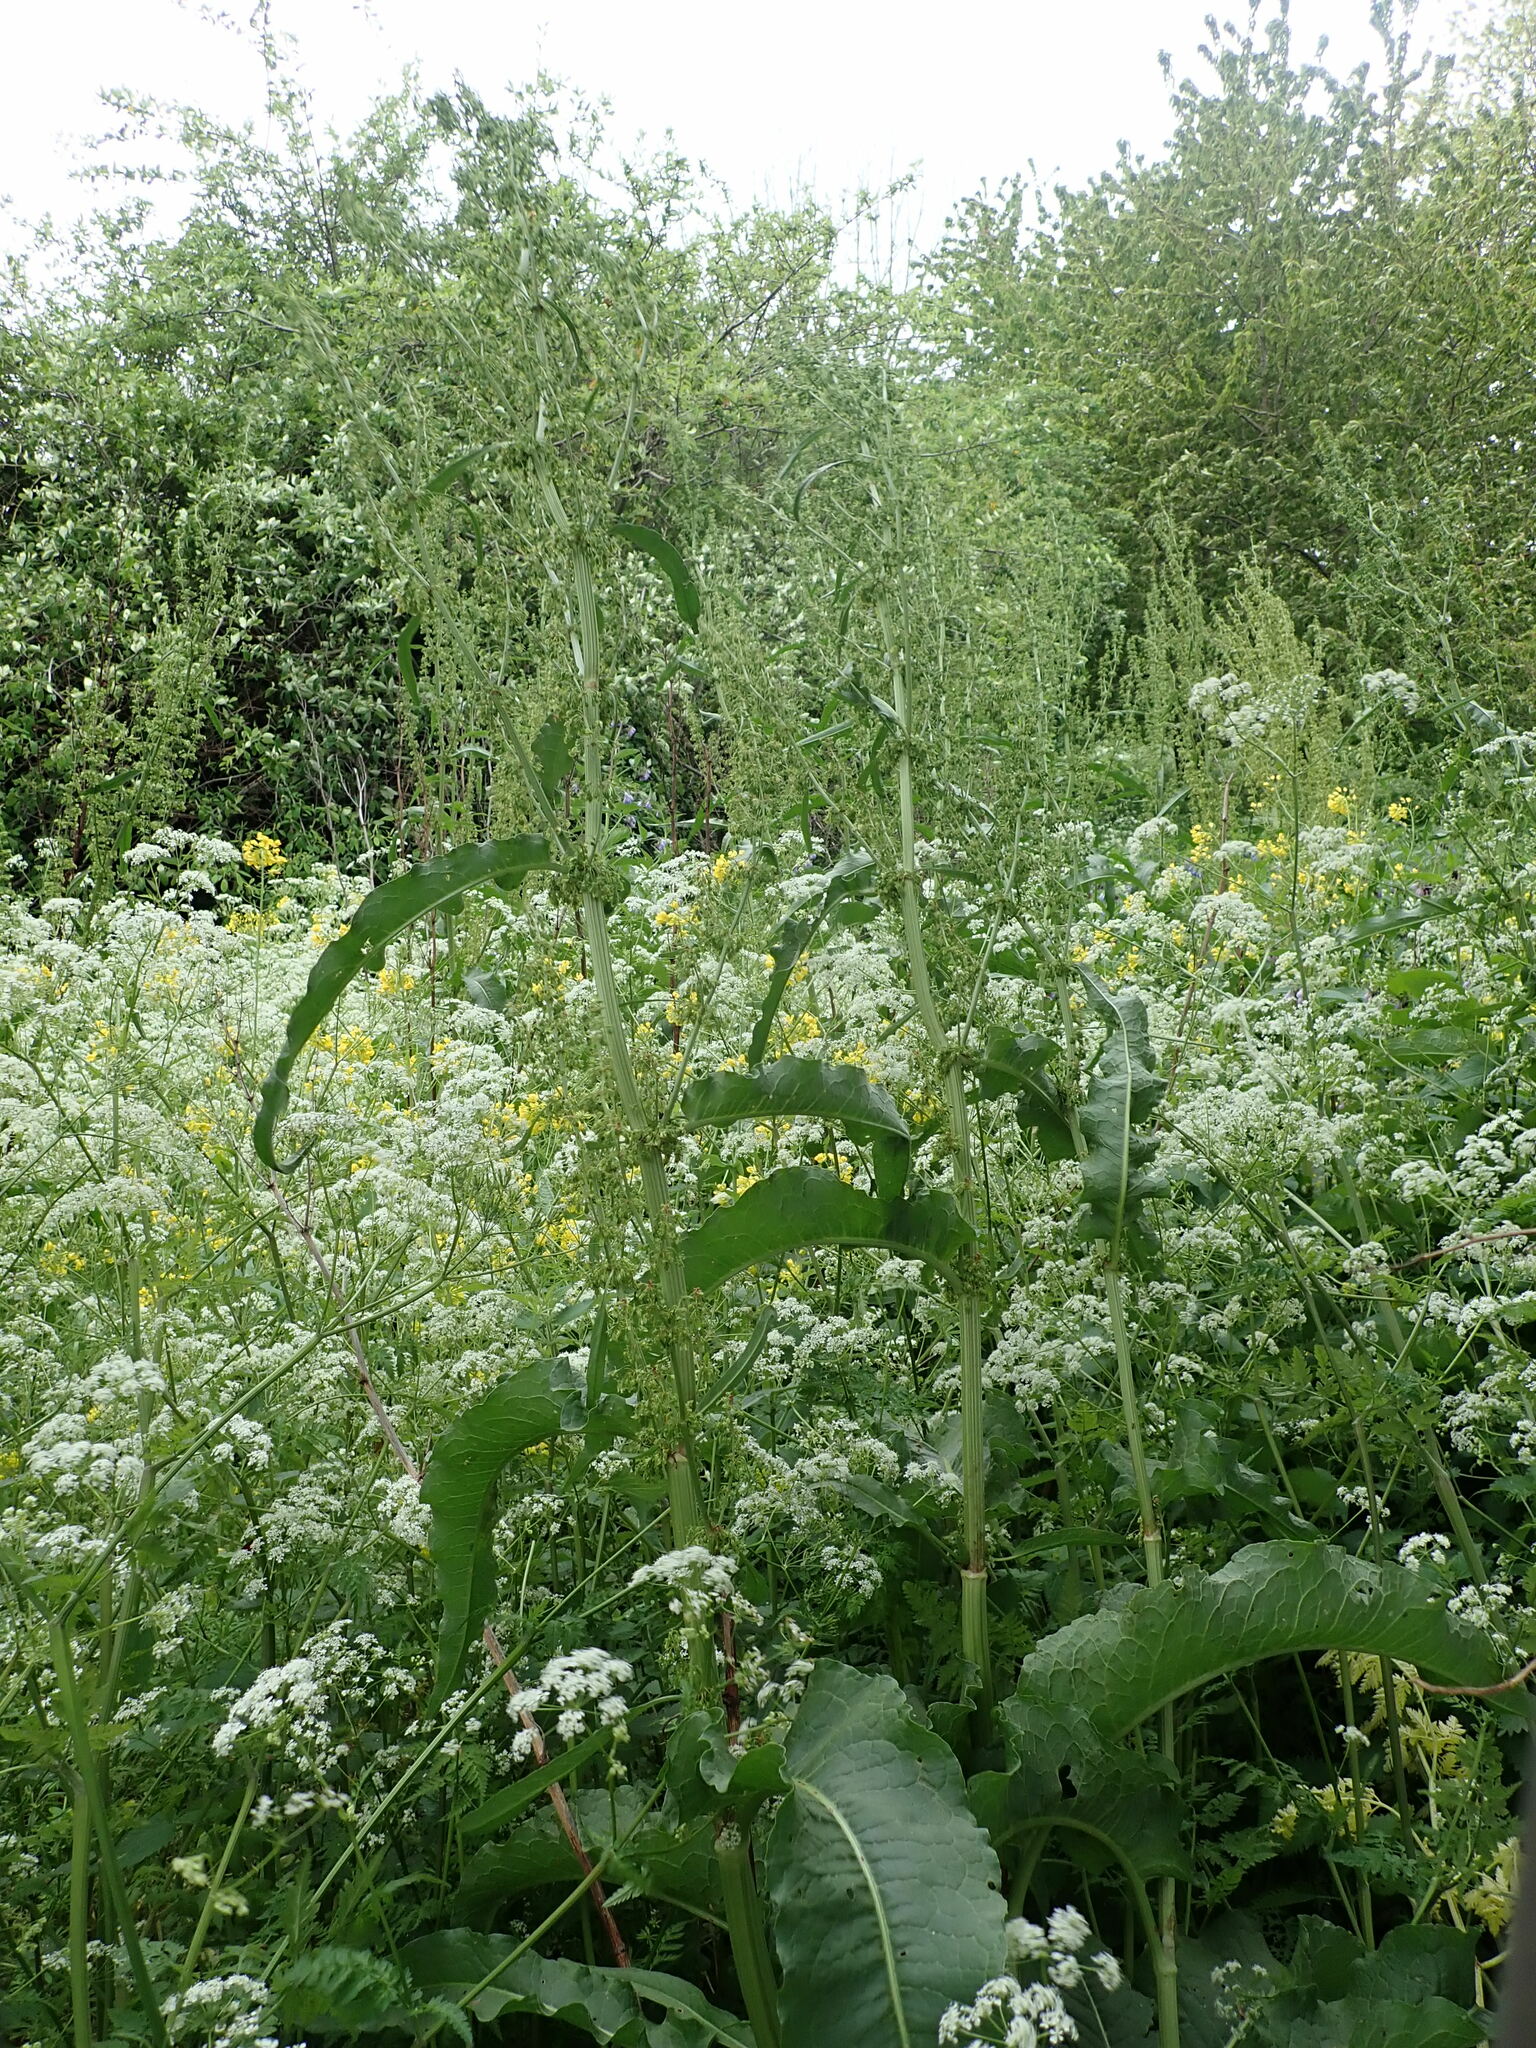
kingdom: Plantae
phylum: Tracheophyta
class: Magnoliopsida
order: Caryophyllales
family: Polygonaceae
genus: Rumex
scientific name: Rumex cristatus
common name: Greek dock
